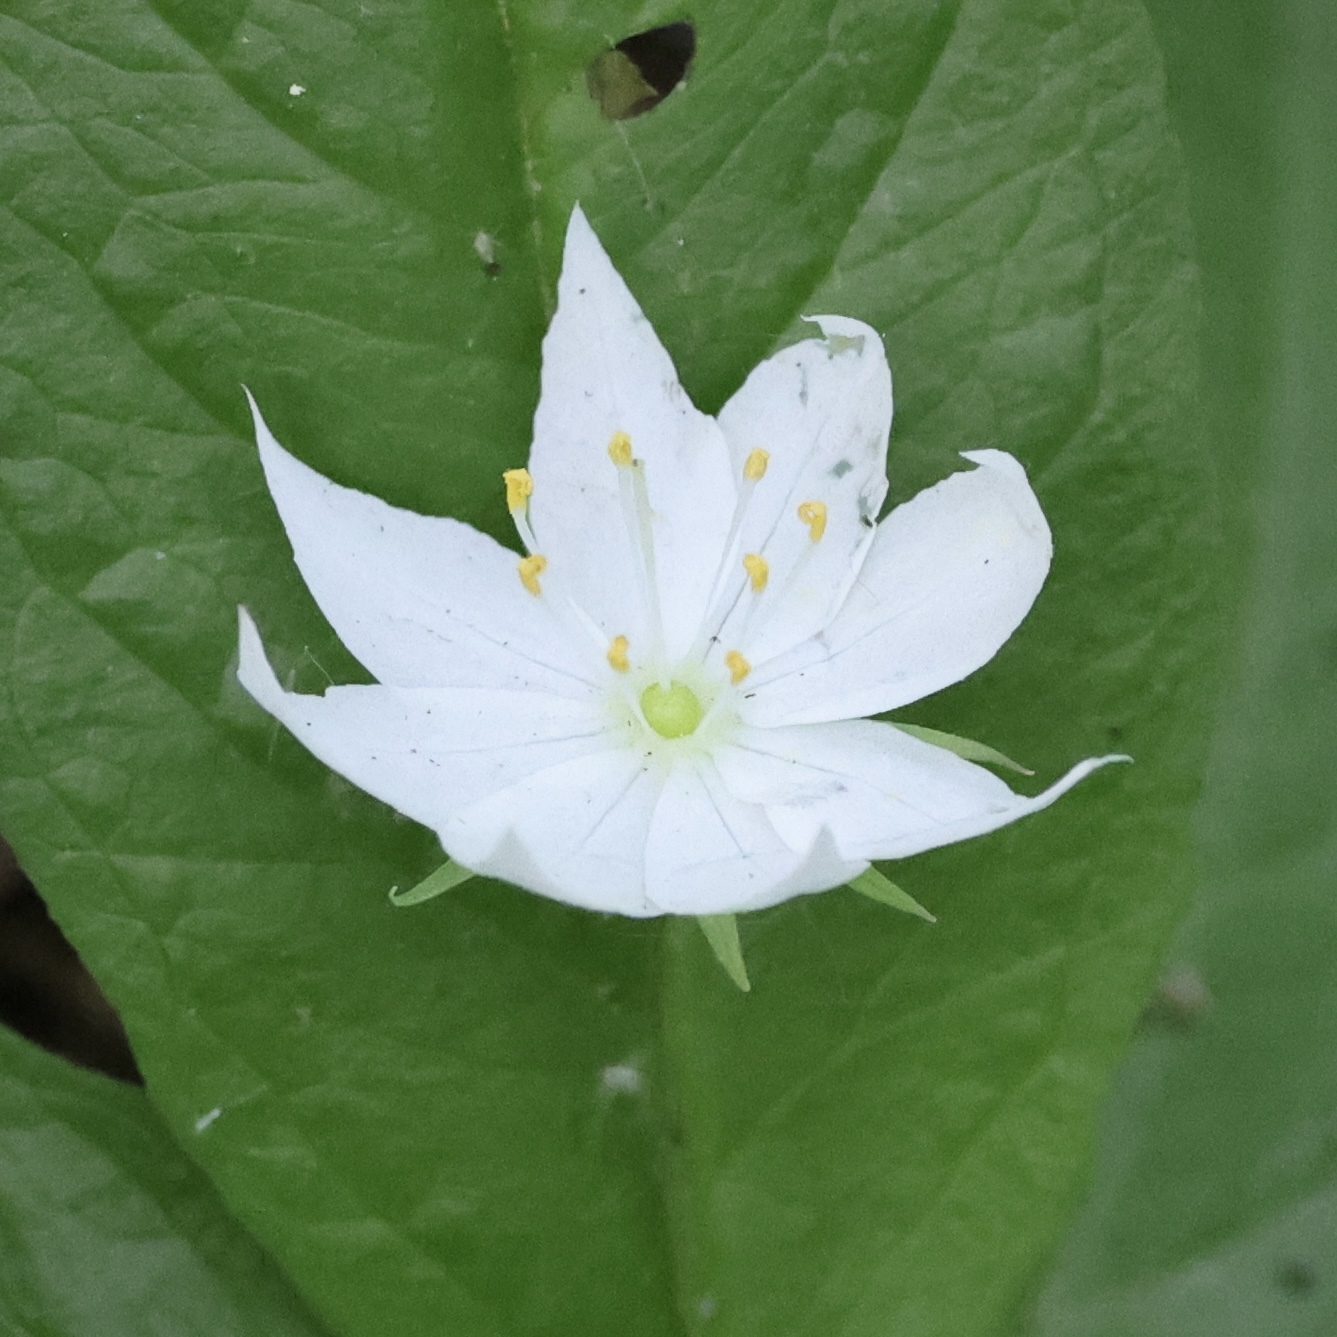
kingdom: Plantae
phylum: Tracheophyta
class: Magnoliopsida
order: Ericales
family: Primulaceae
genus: Lysimachia
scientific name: Lysimachia borealis
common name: American starflower
